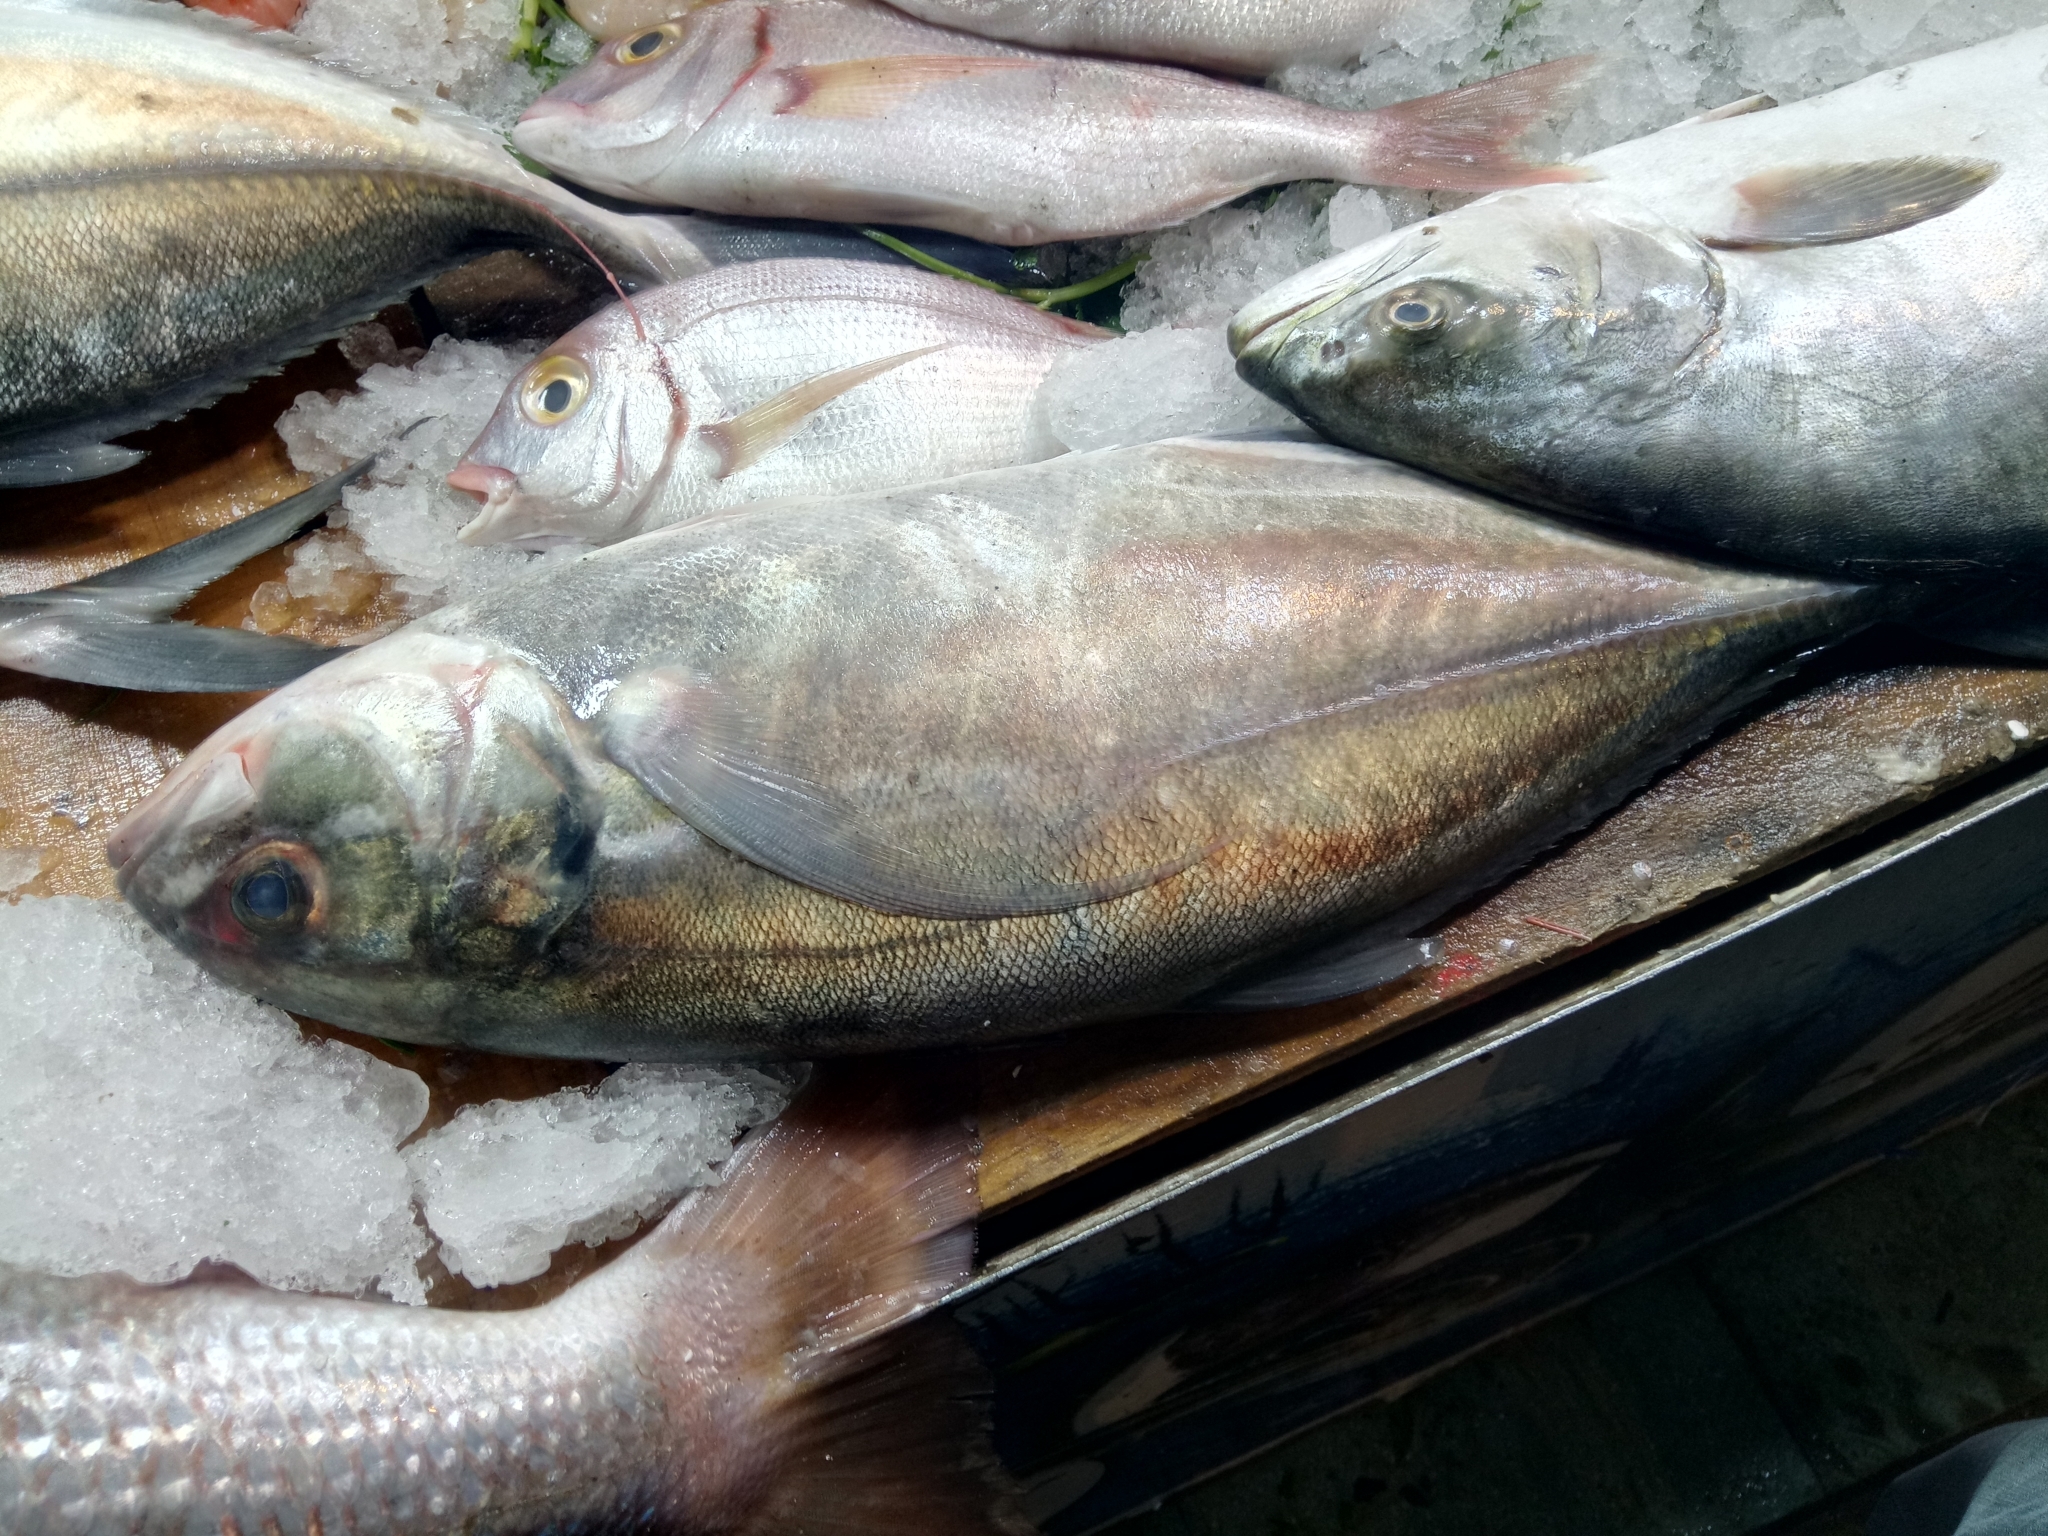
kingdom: Animalia
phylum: Chordata
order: Perciformes
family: Carangidae
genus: Caranx
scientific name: Caranx crysos
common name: Blue runner
